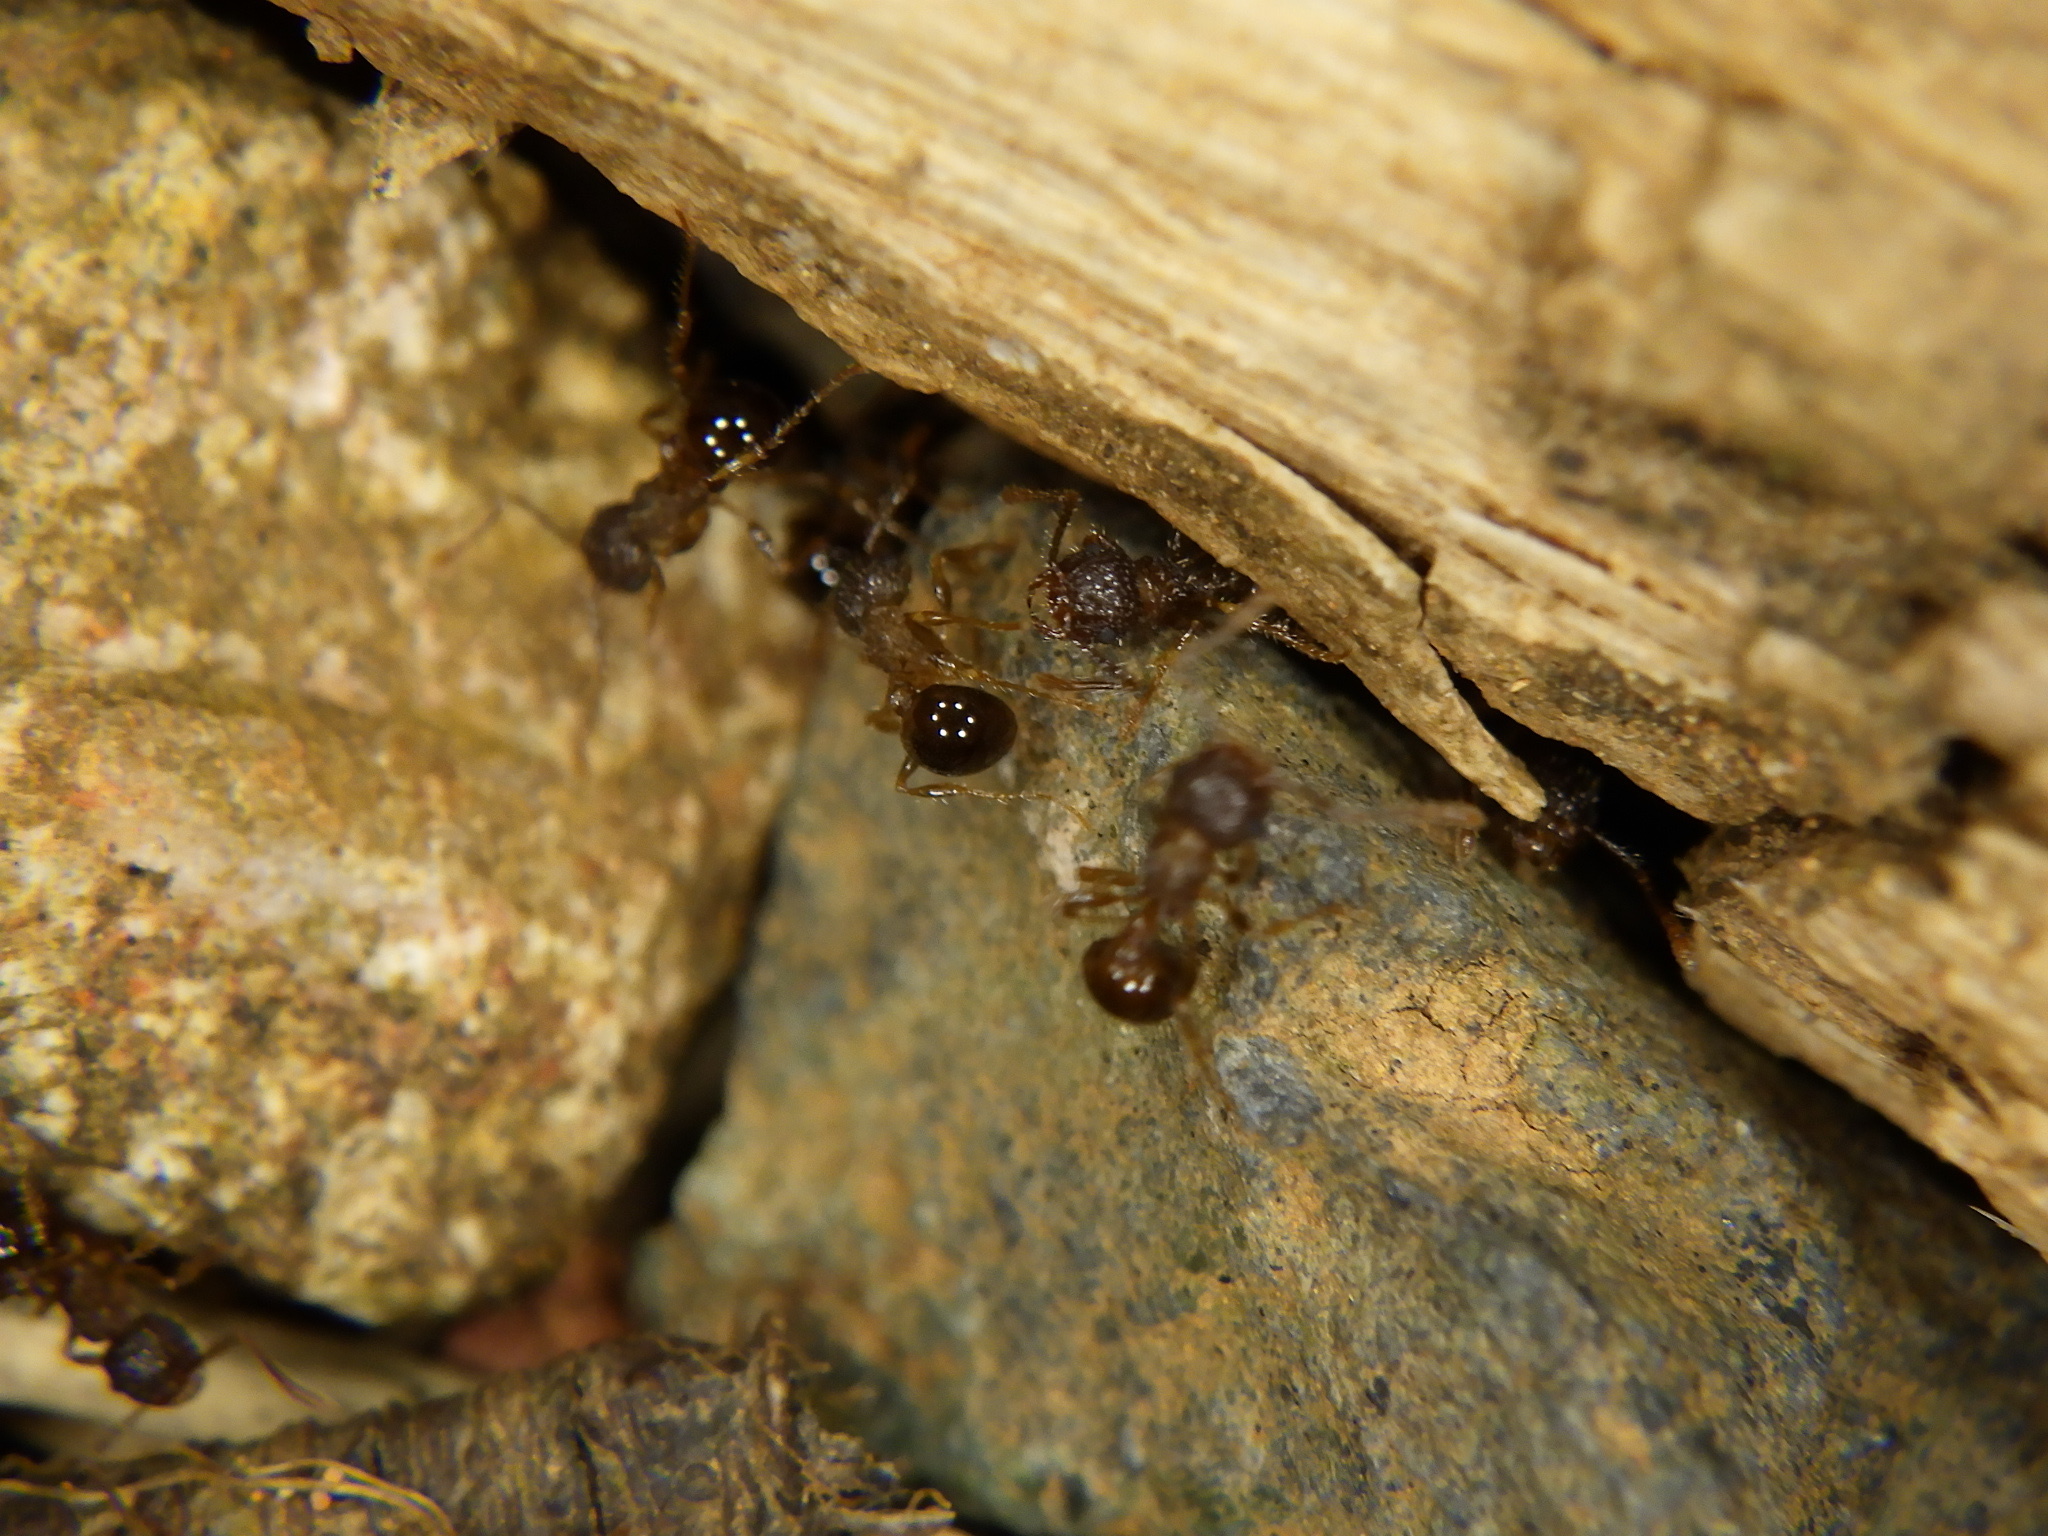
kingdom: Animalia
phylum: Arthropoda
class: Insecta
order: Hymenoptera
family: Formicidae
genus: Pristomyrmex
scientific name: Pristomyrmex punctatus
